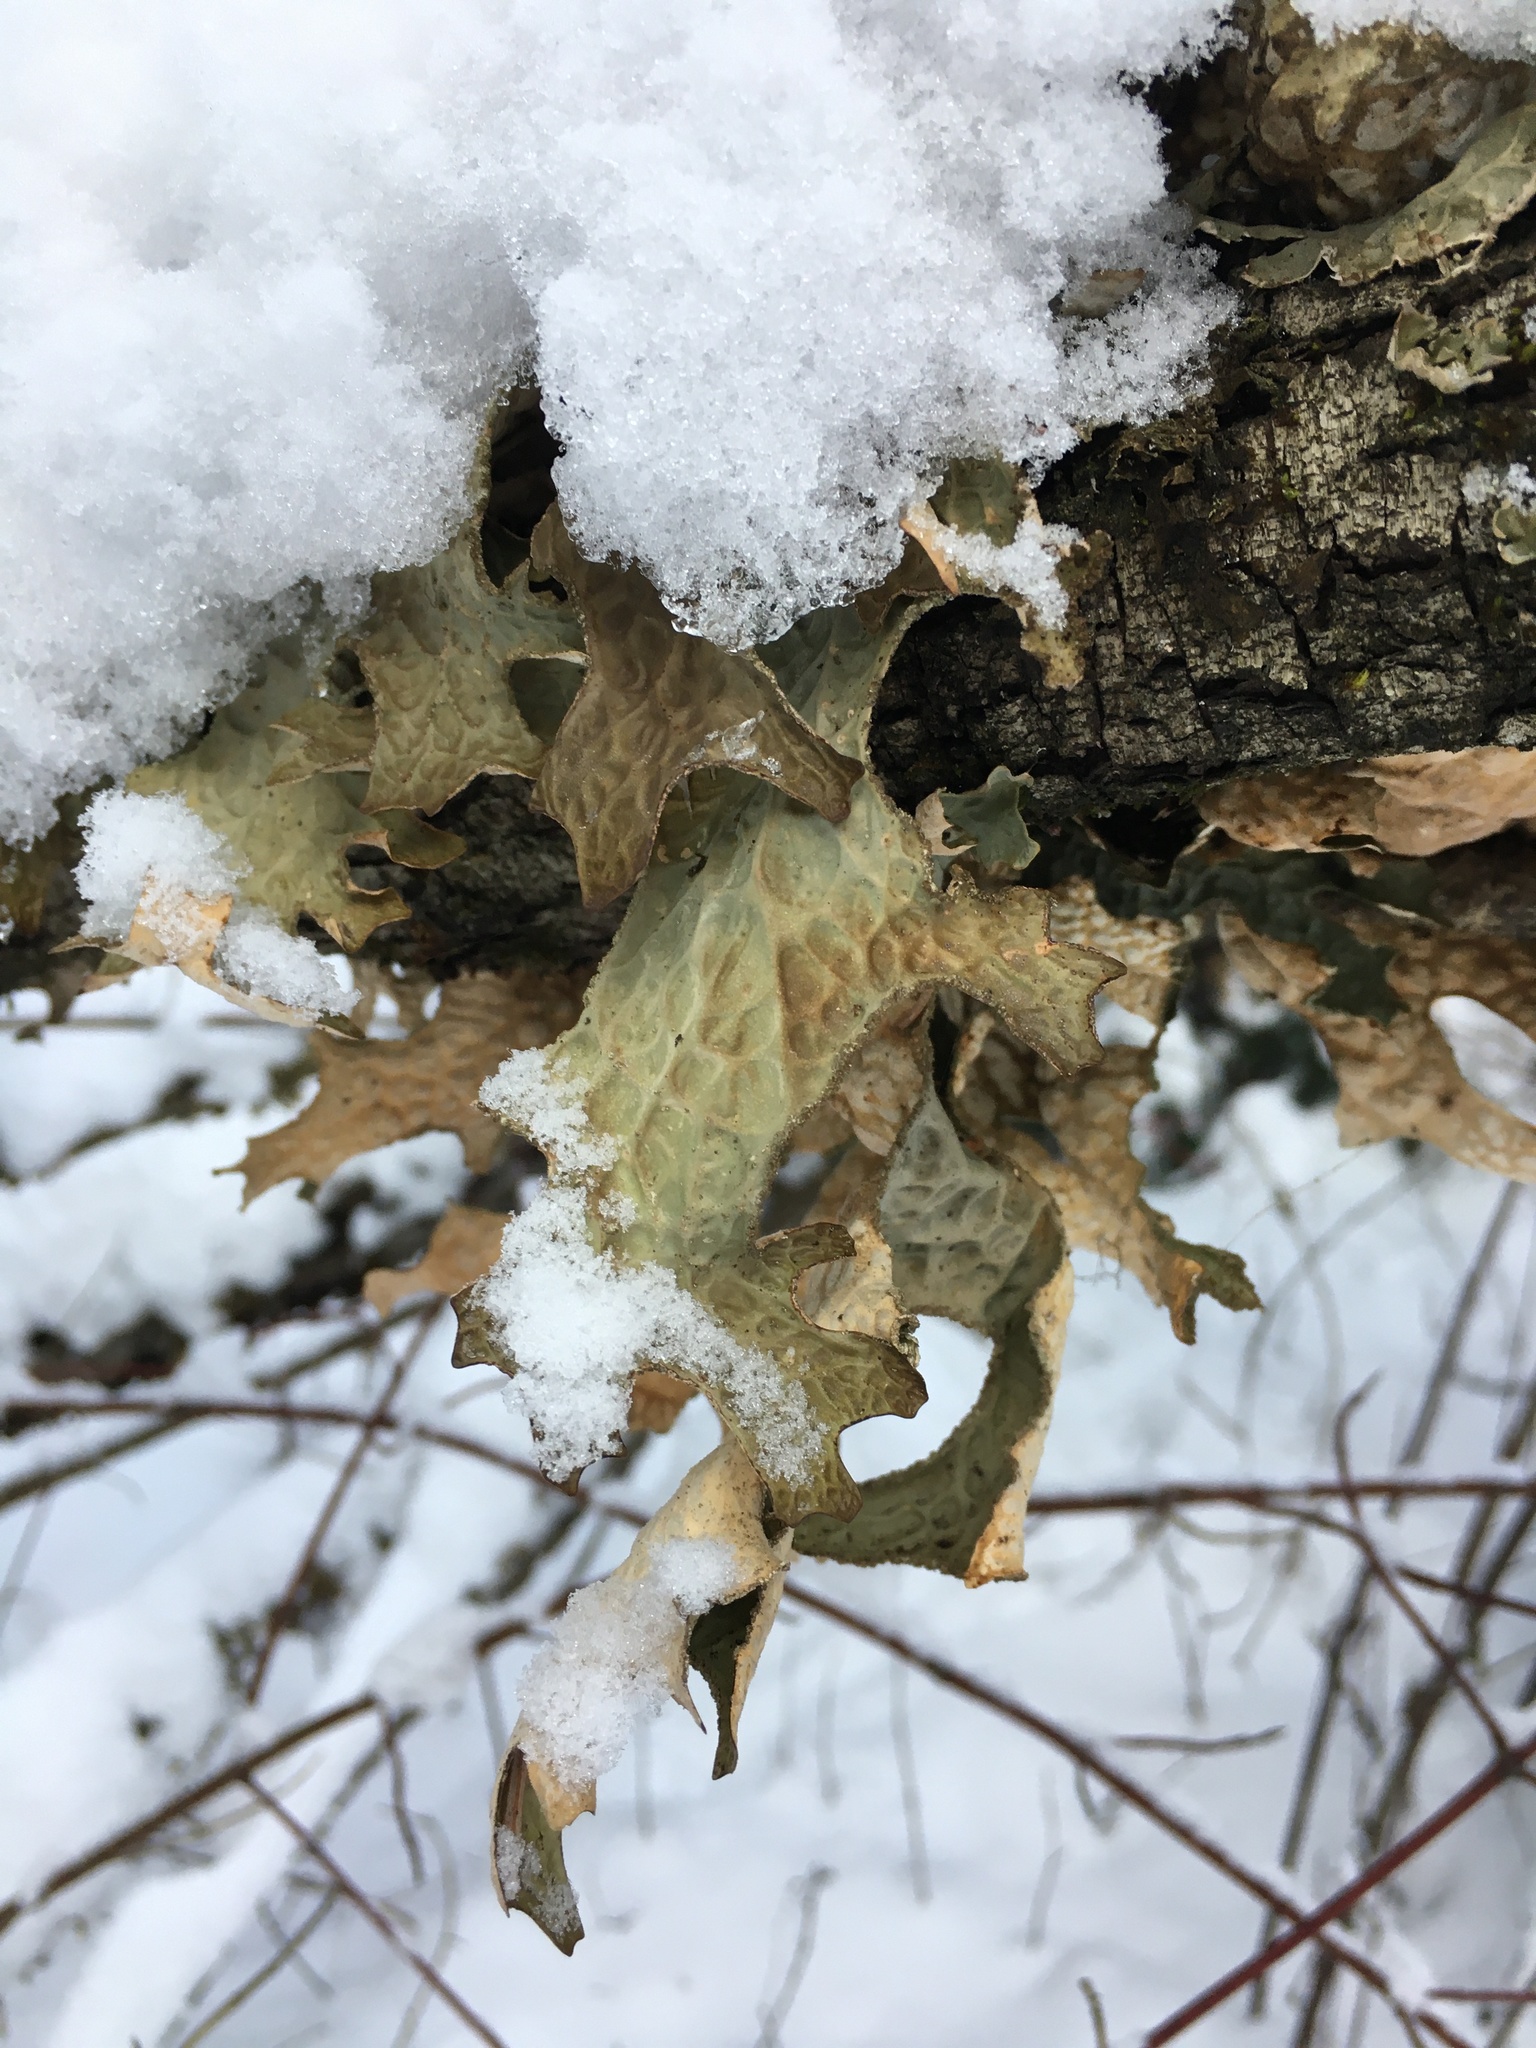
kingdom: Fungi
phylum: Ascomycota
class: Lecanoromycetes
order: Peltigerales
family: Lobariaceae
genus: Lobaria
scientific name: Lobaria pulmonaria
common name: Lungwort
